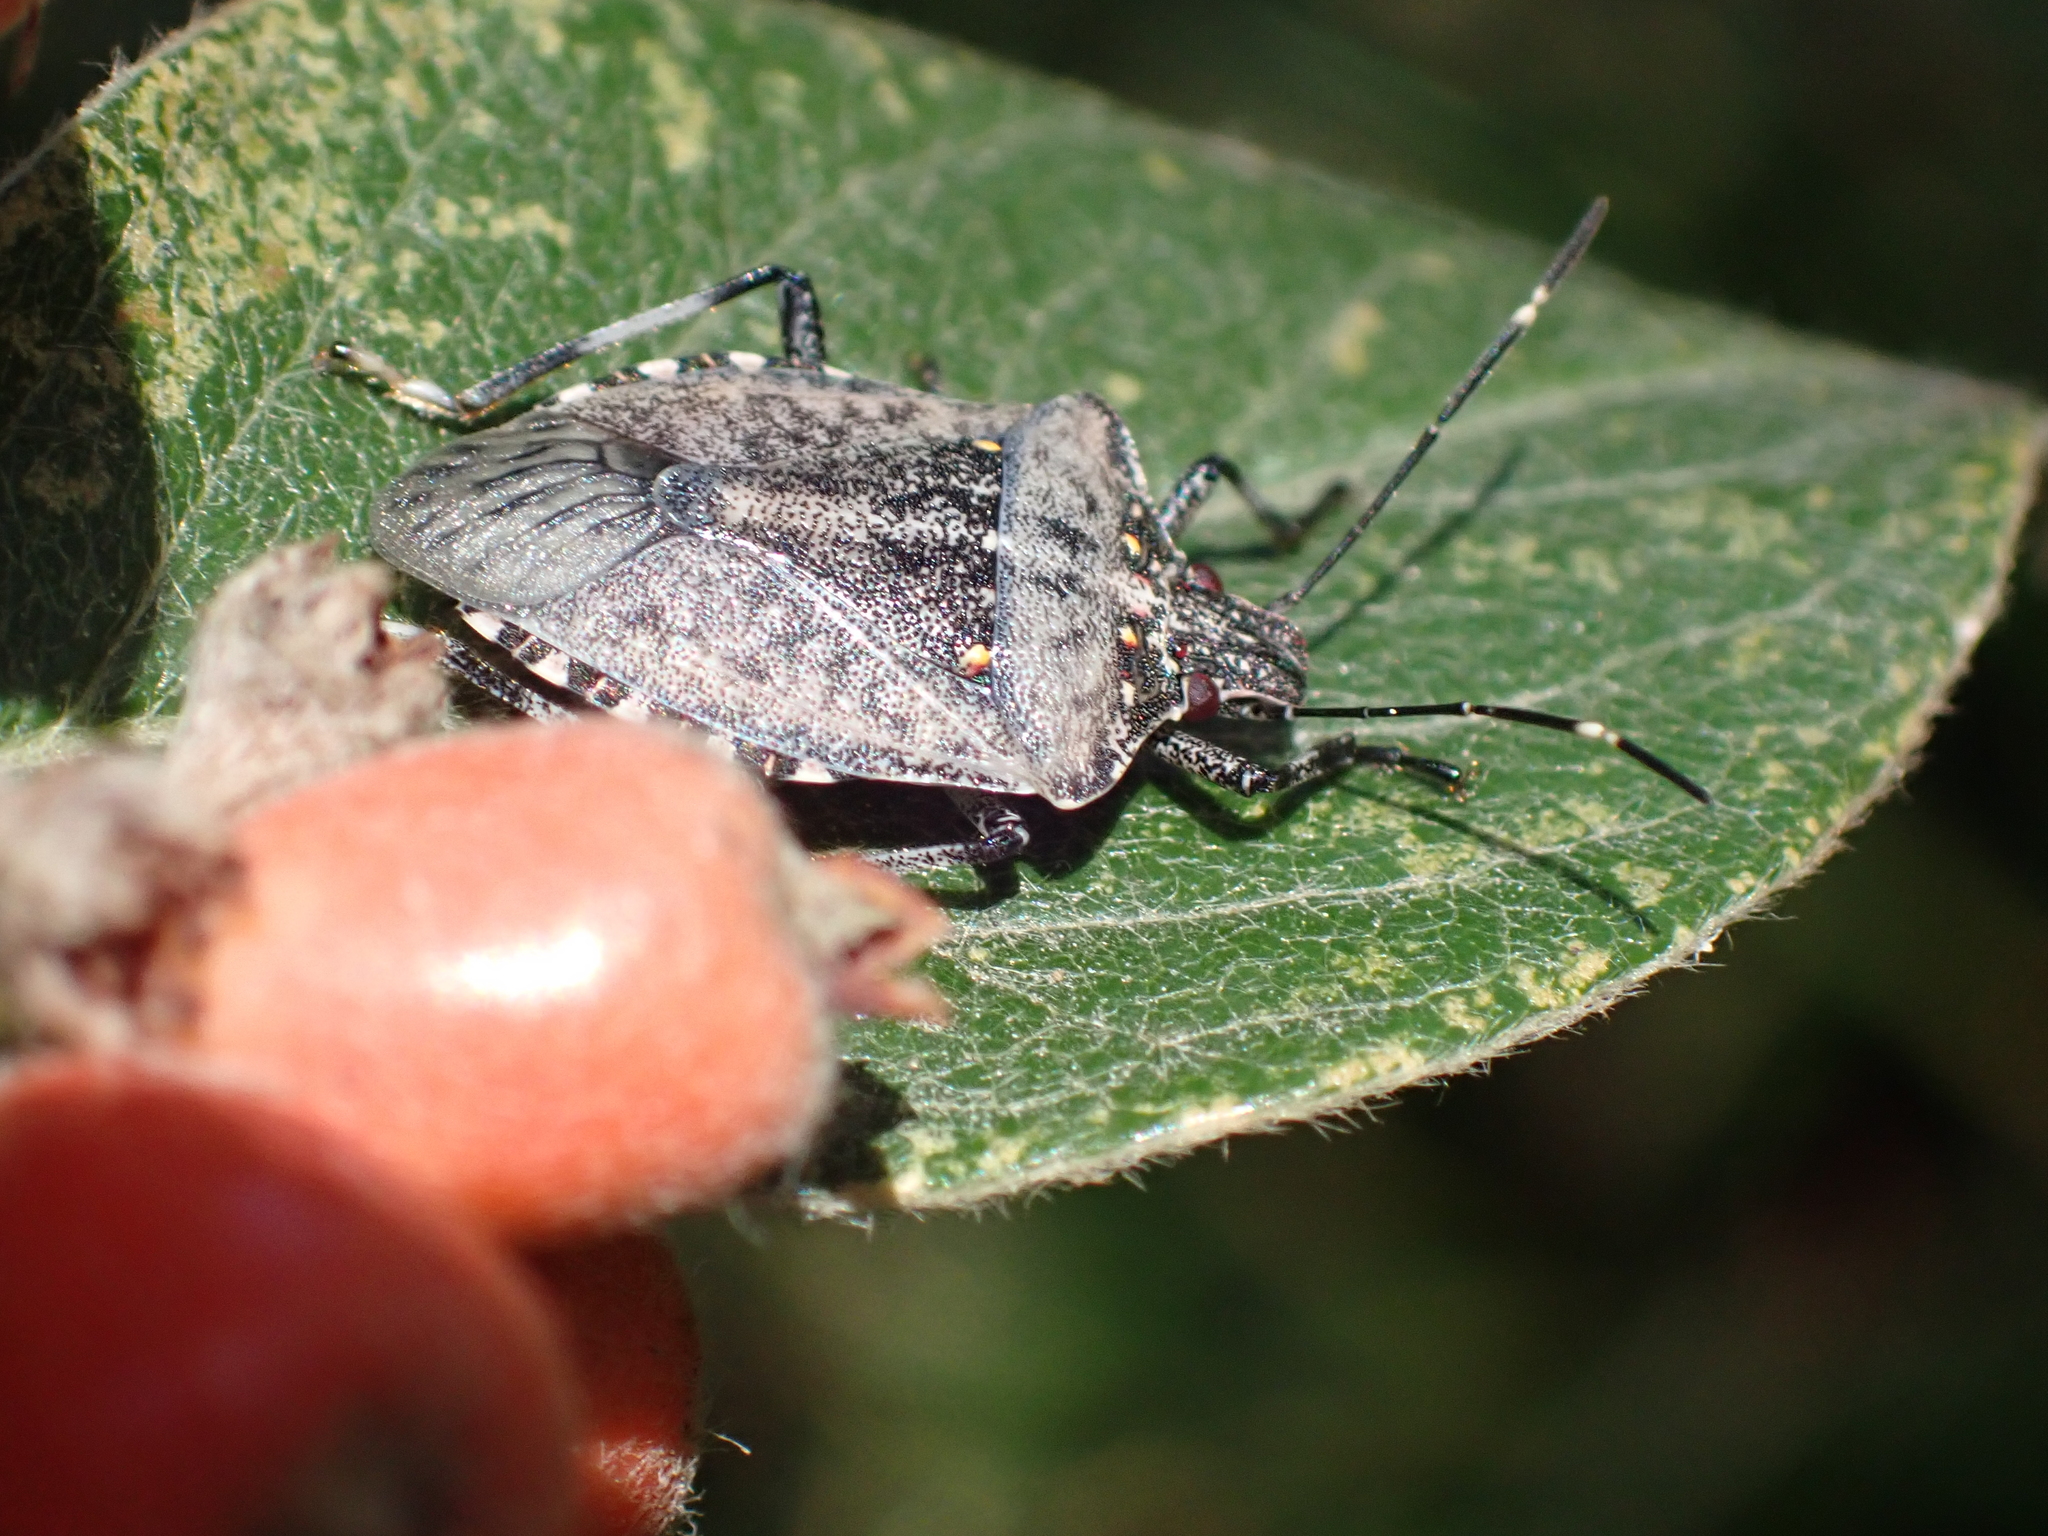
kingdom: Animalia
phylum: Arthropoda
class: Insecta
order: Hemiptera
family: Pentatomidae
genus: Halyomorpha
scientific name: Halyomorpha halys
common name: Brown marmorated stink bug
